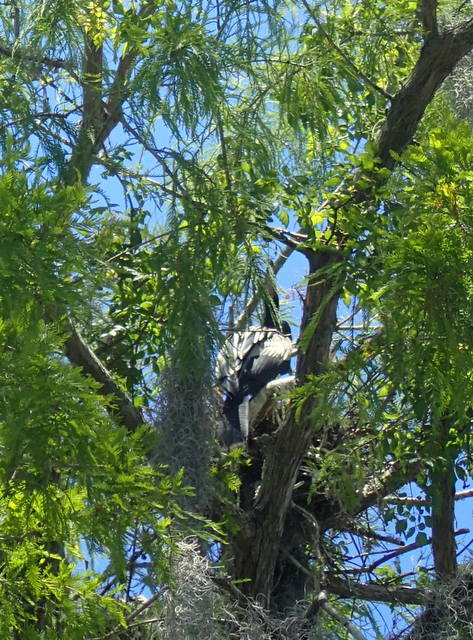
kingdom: Animalia
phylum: Chordata
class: Aves
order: Suliformes
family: Anhingidae
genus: Anhinga
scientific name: Anhinga anhinga
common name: Anhinga
